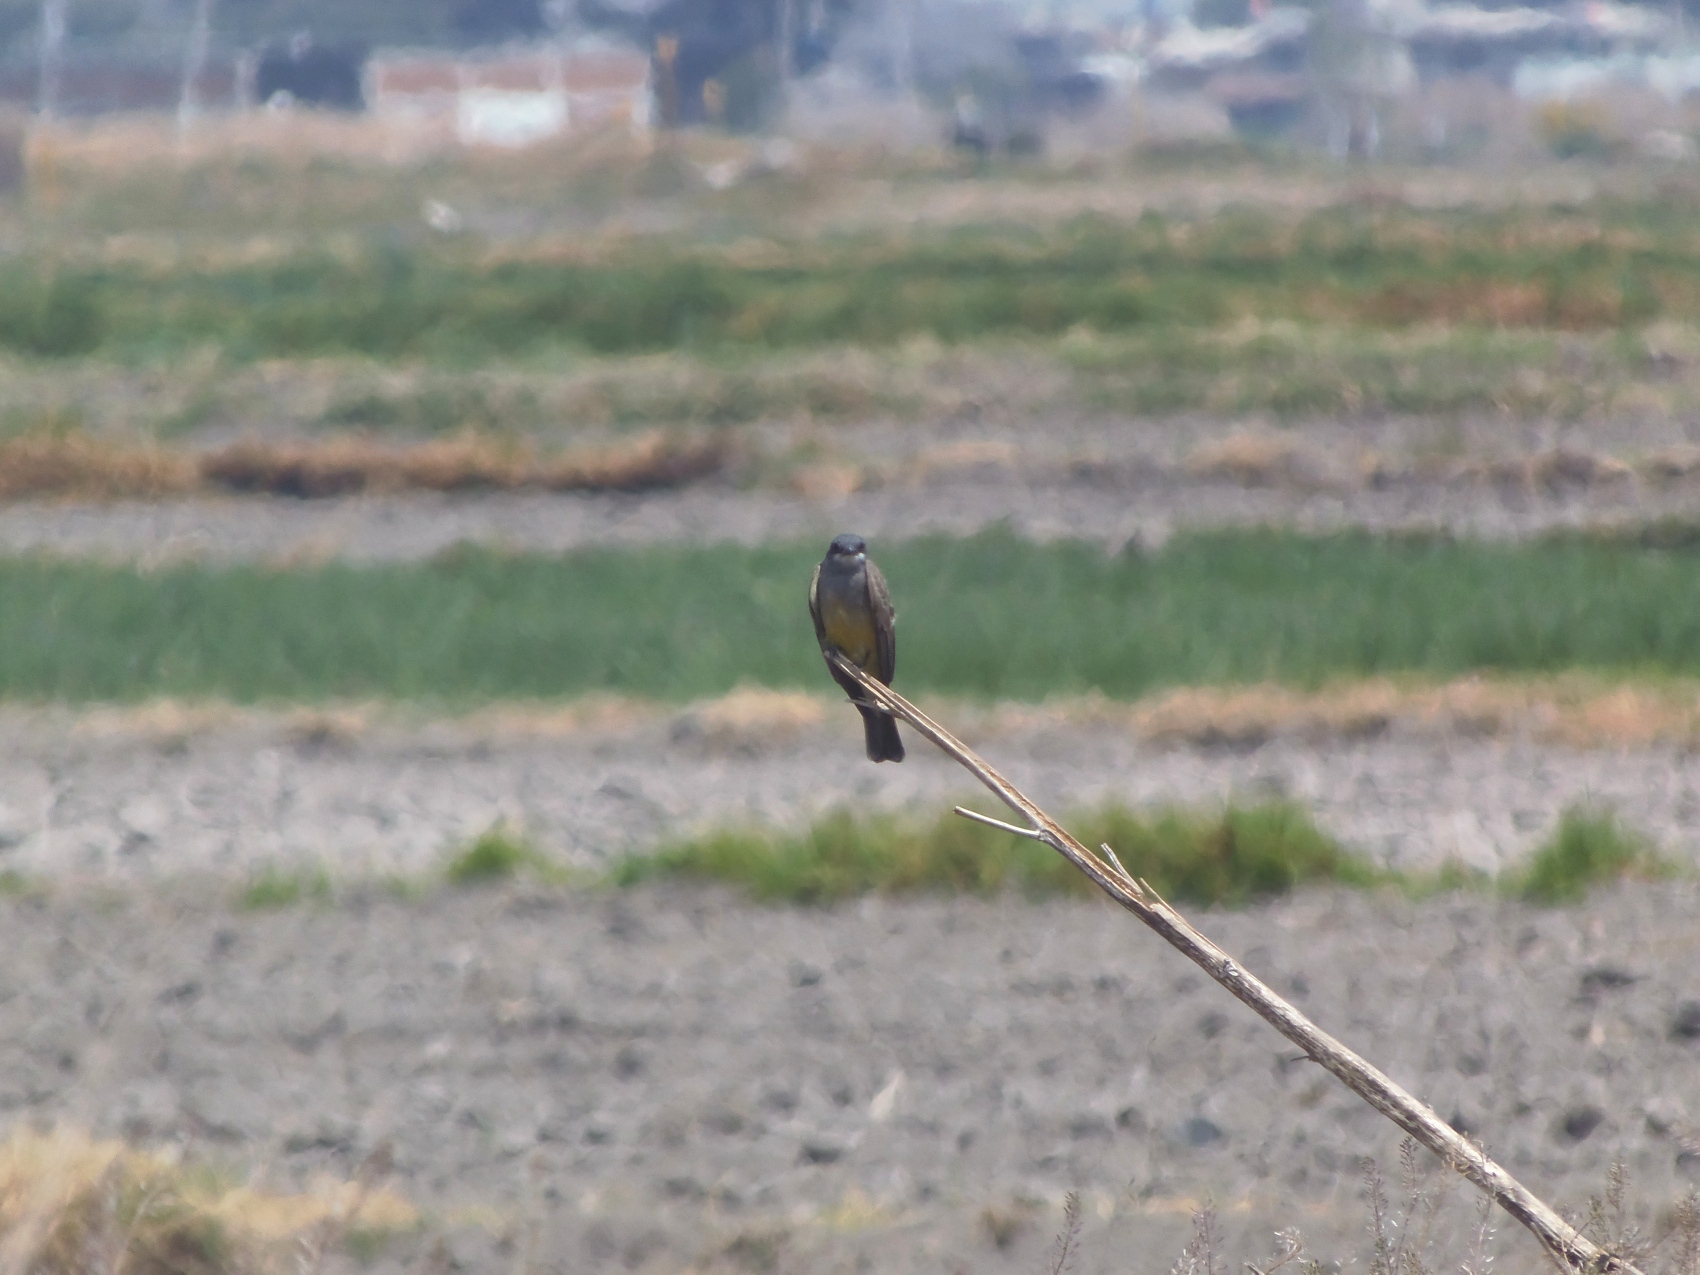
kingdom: Animalia
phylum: Chordata
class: Aves
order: Passeriformes
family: Tyrannidae
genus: Tyrannus
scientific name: Tyrannus vociferans
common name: Cassin's kingbird
